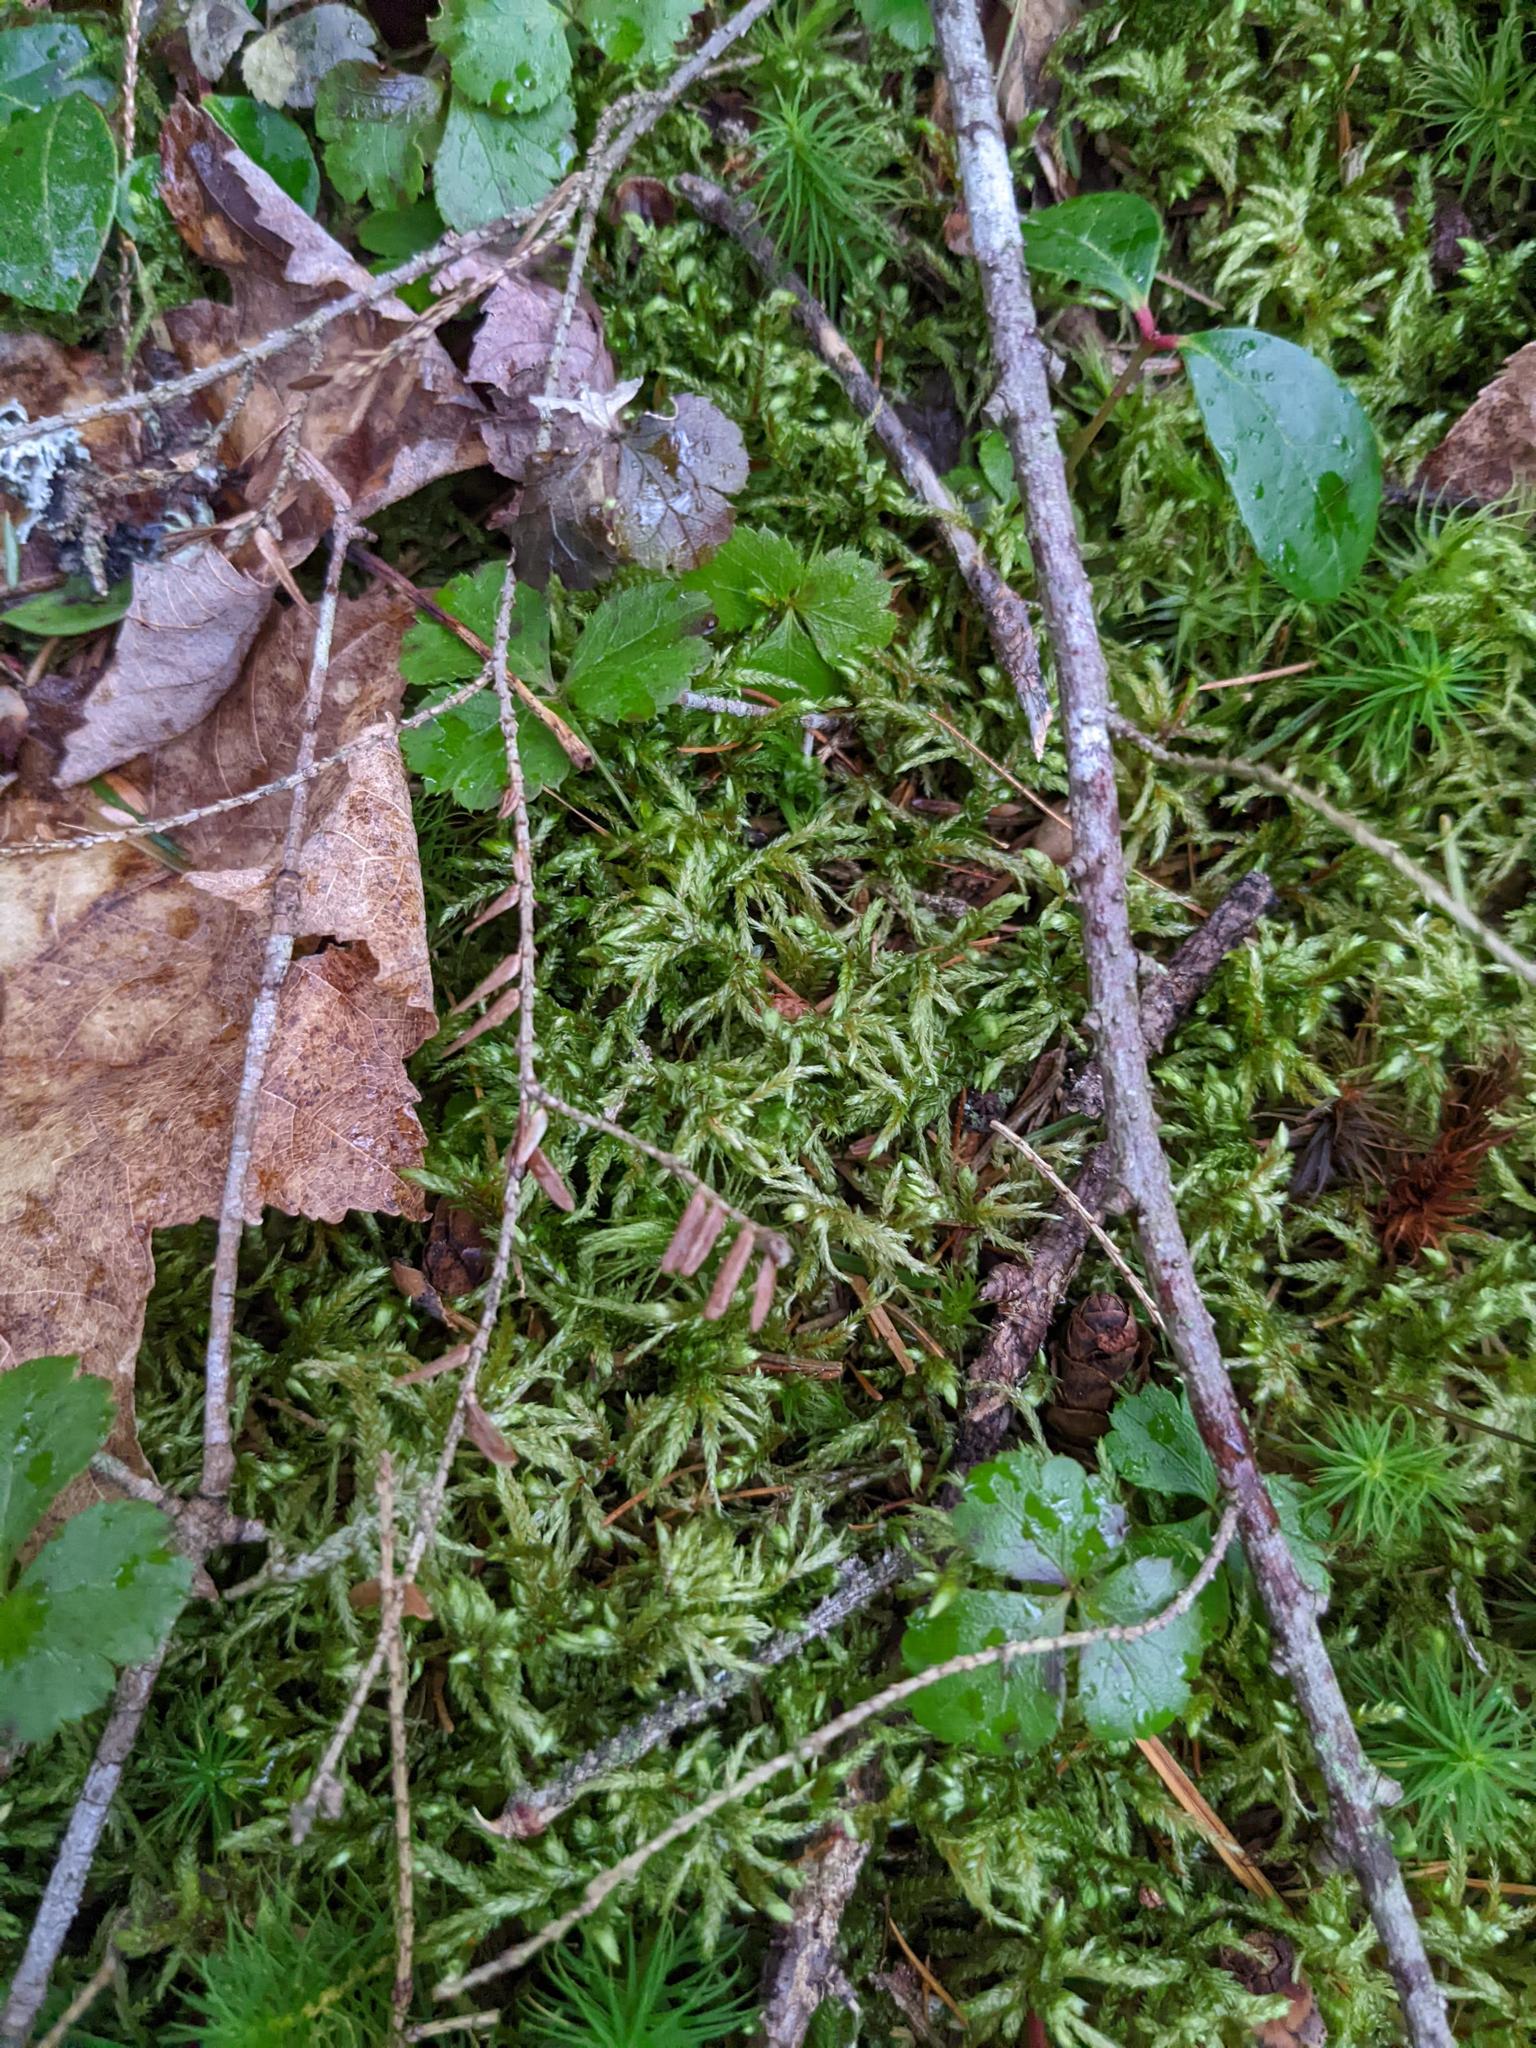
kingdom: Plantae
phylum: Tracheophyta
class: Magnoliopsida
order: Ranunculales
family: Ranunculaceae
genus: Coptis
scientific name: Coptis trifolia
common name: Canker-root
